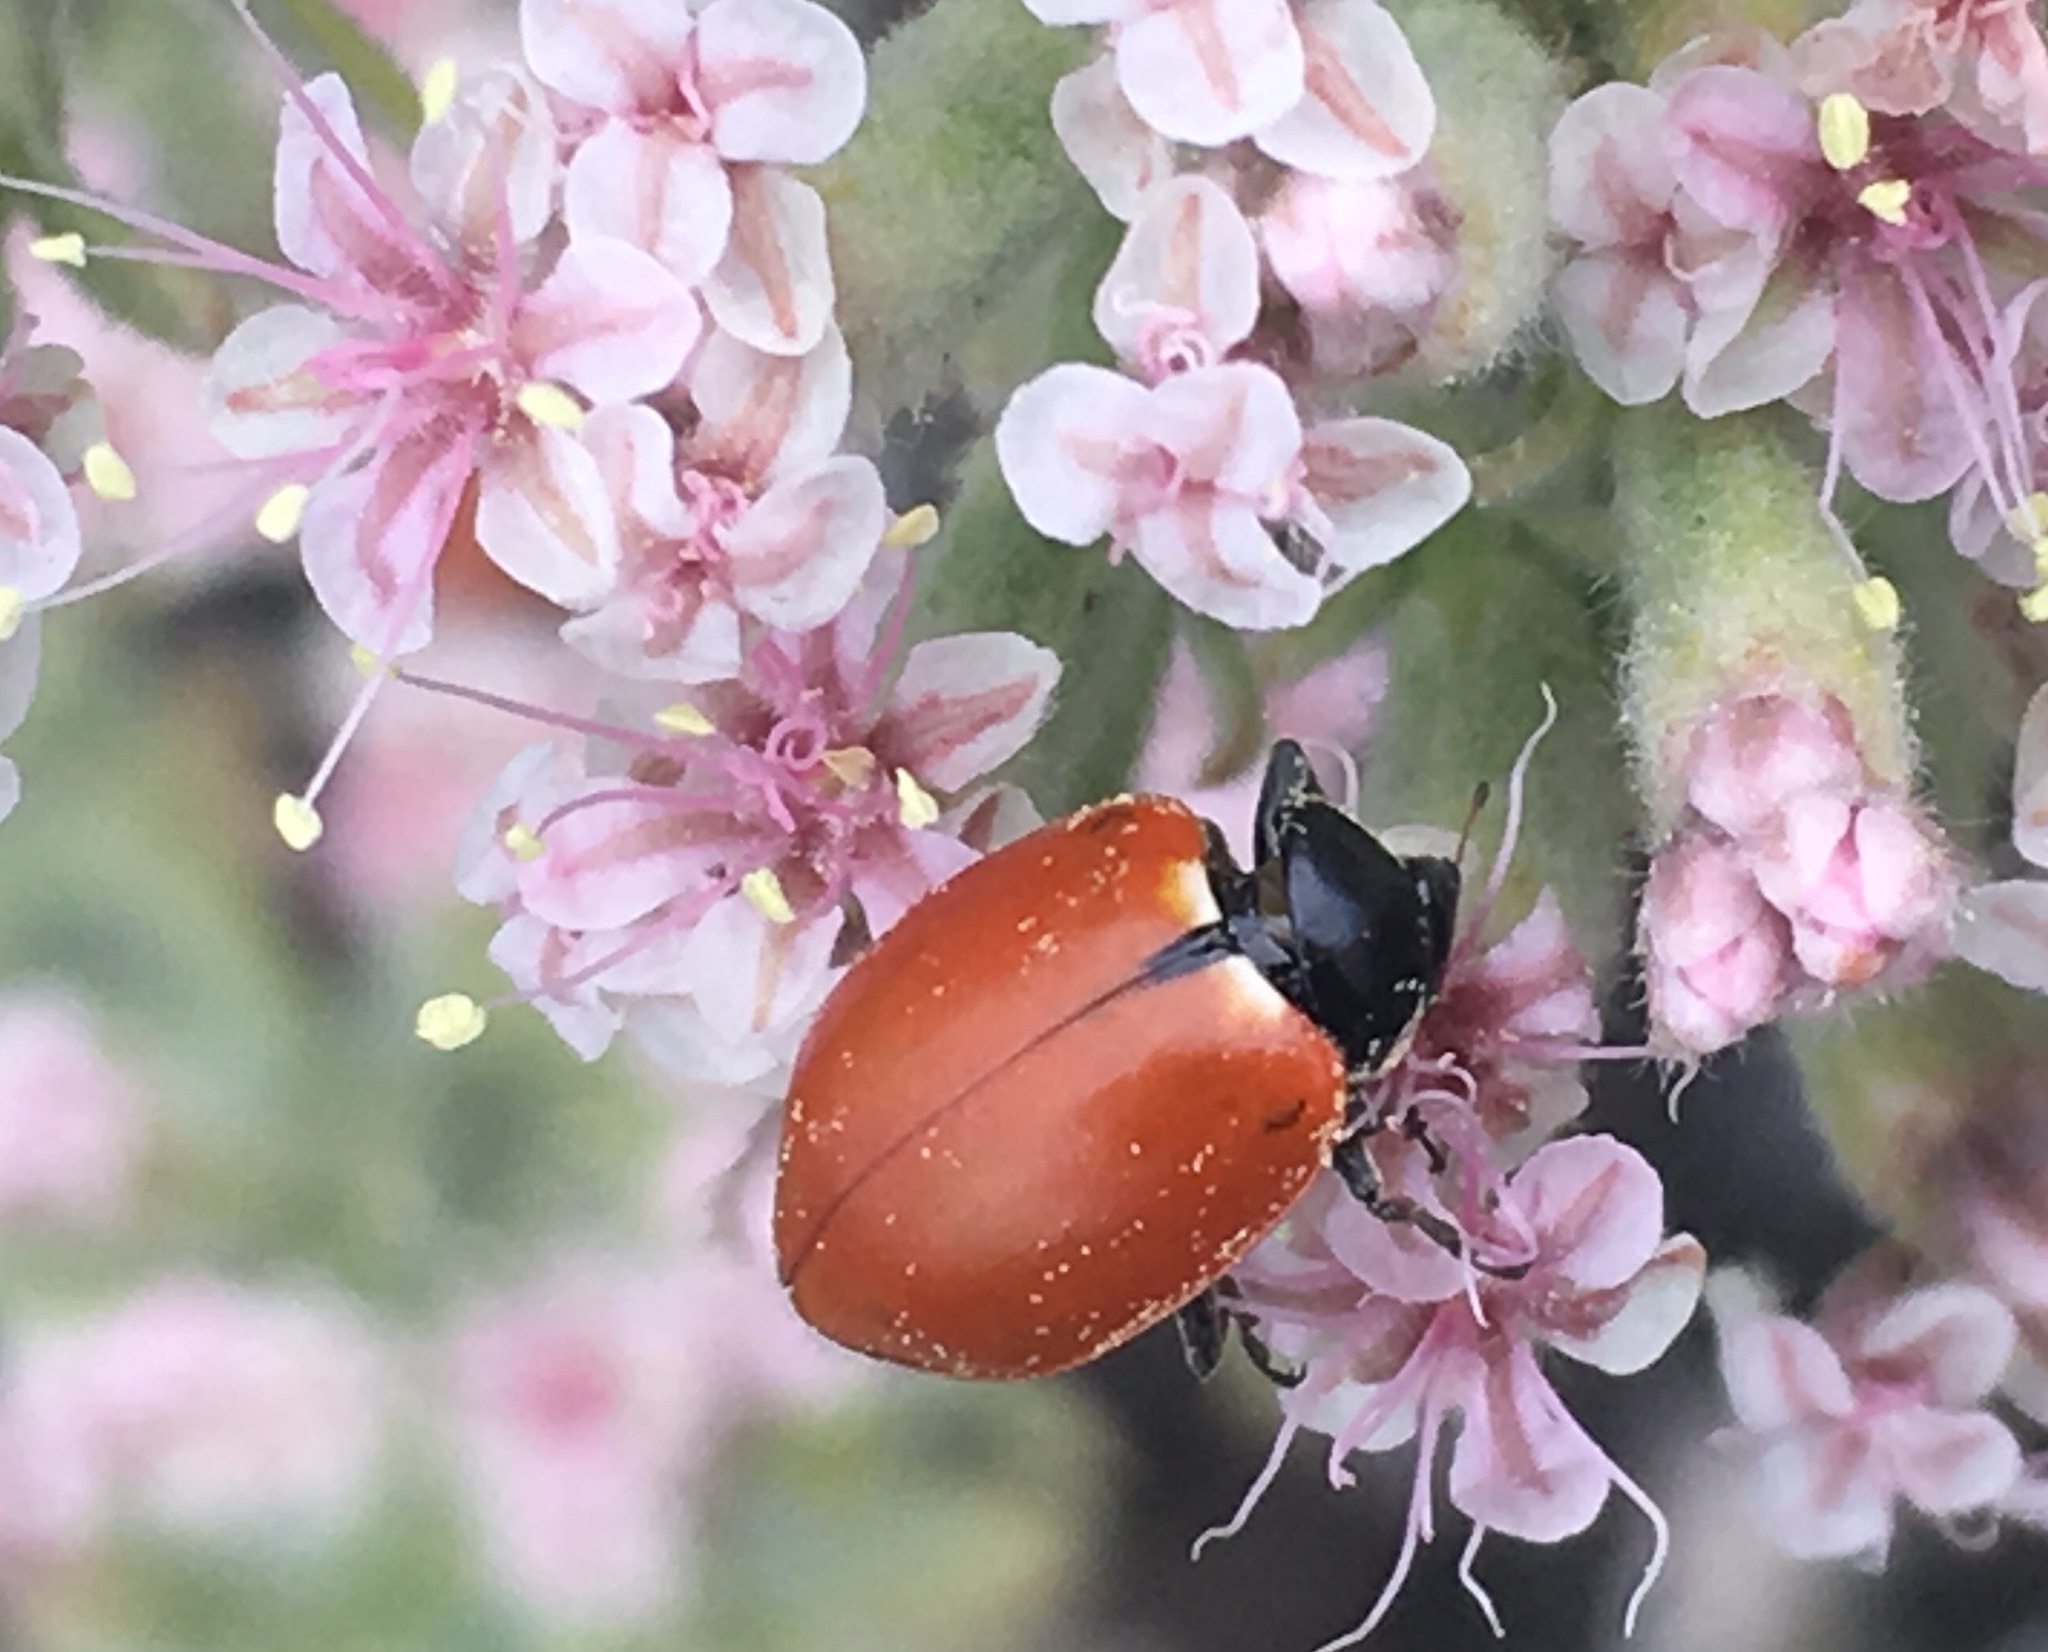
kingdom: Animalia
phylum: Arthropoda
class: Insecta
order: Coleoptera
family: Coccinellidae
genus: Hippodamia
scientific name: Hippodamia quinquesignata
